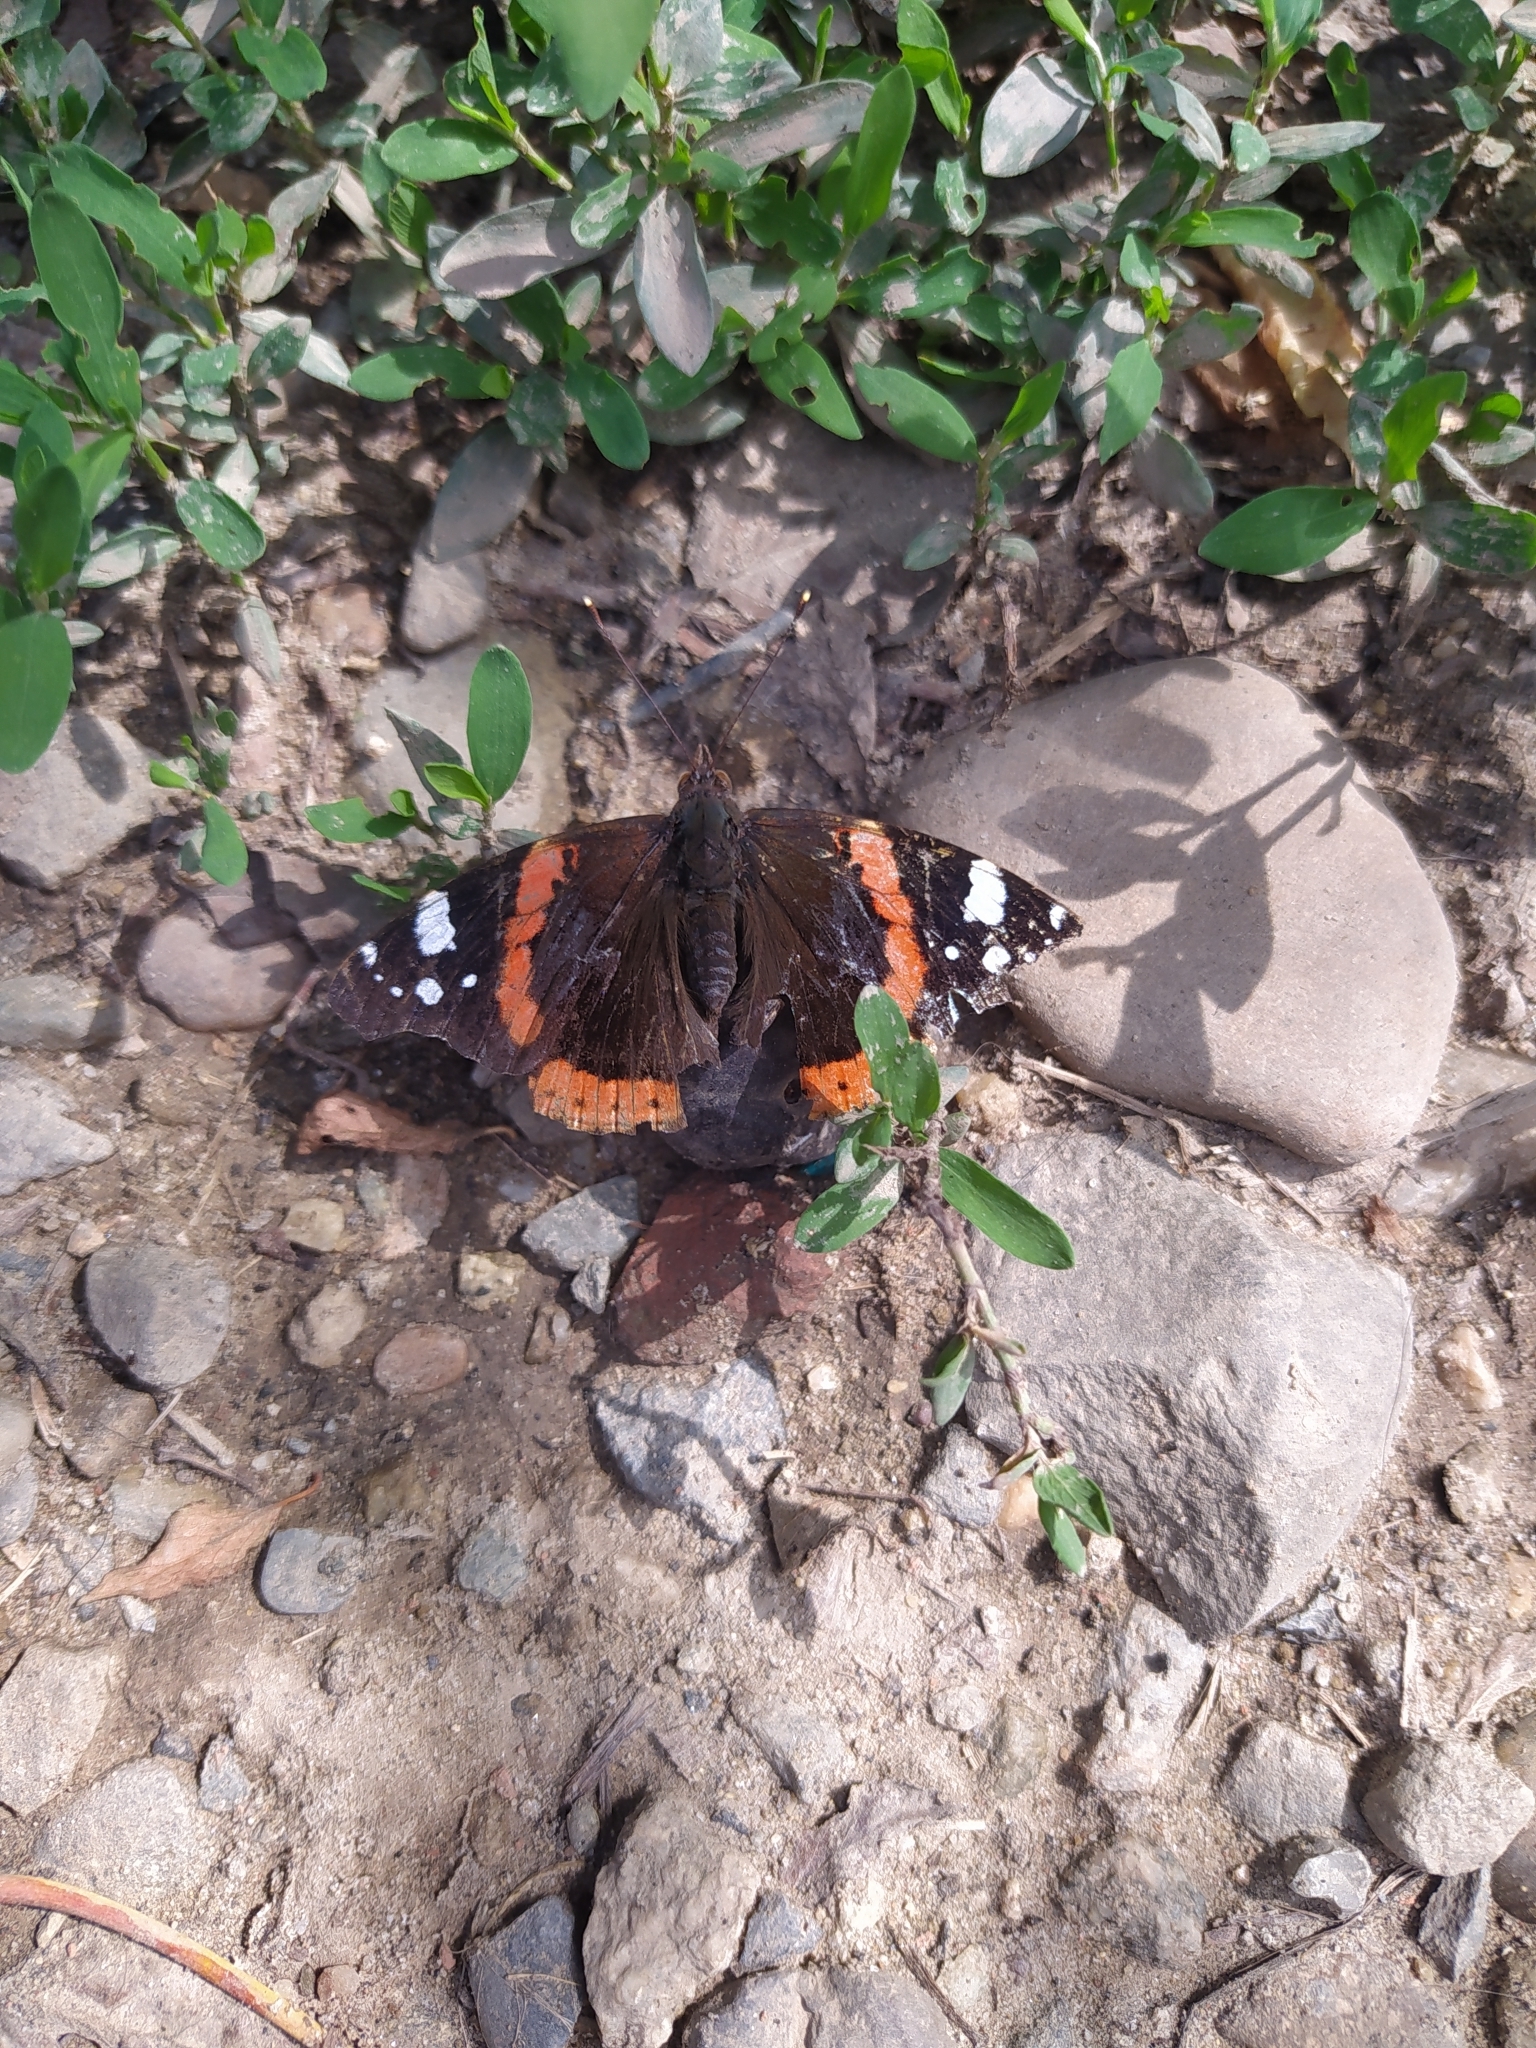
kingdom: Animalia
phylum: Arthropoda
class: Insecta
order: Lepidoptera
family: Nymphalidae
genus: Vanessa
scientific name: Vanessa atalanta
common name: Red admiral
